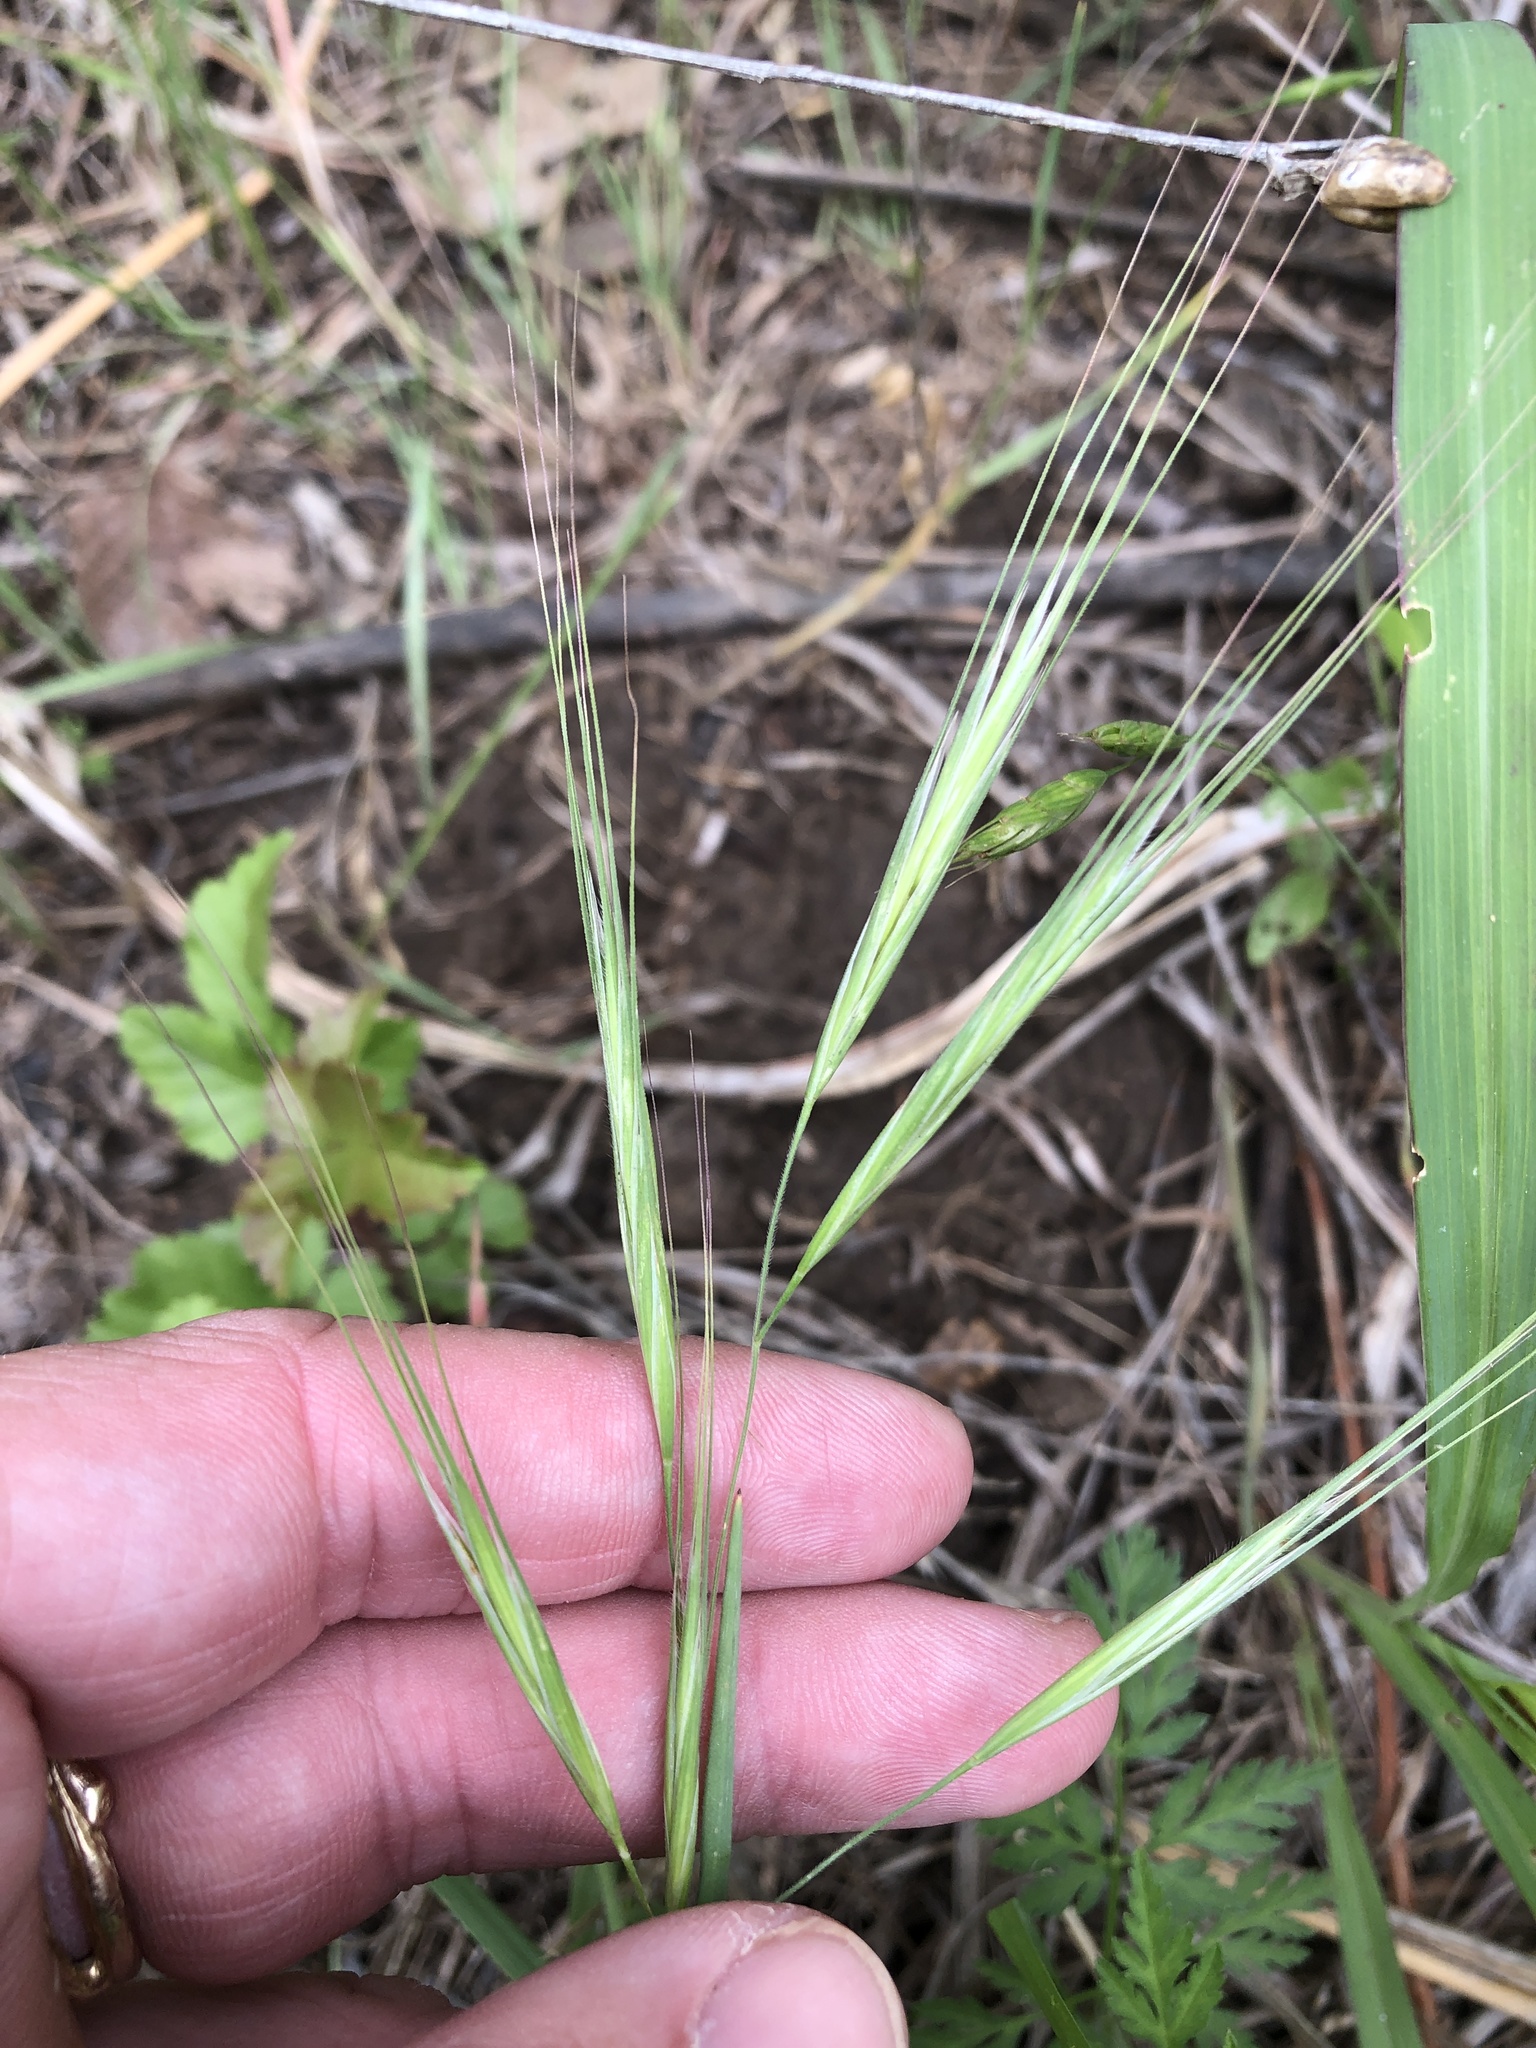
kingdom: Plantae
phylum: Tracheophyta
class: Liliopsida
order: Poales
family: Poaceae
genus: Bromus
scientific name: Bromus diandrus
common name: Ripgut brome
